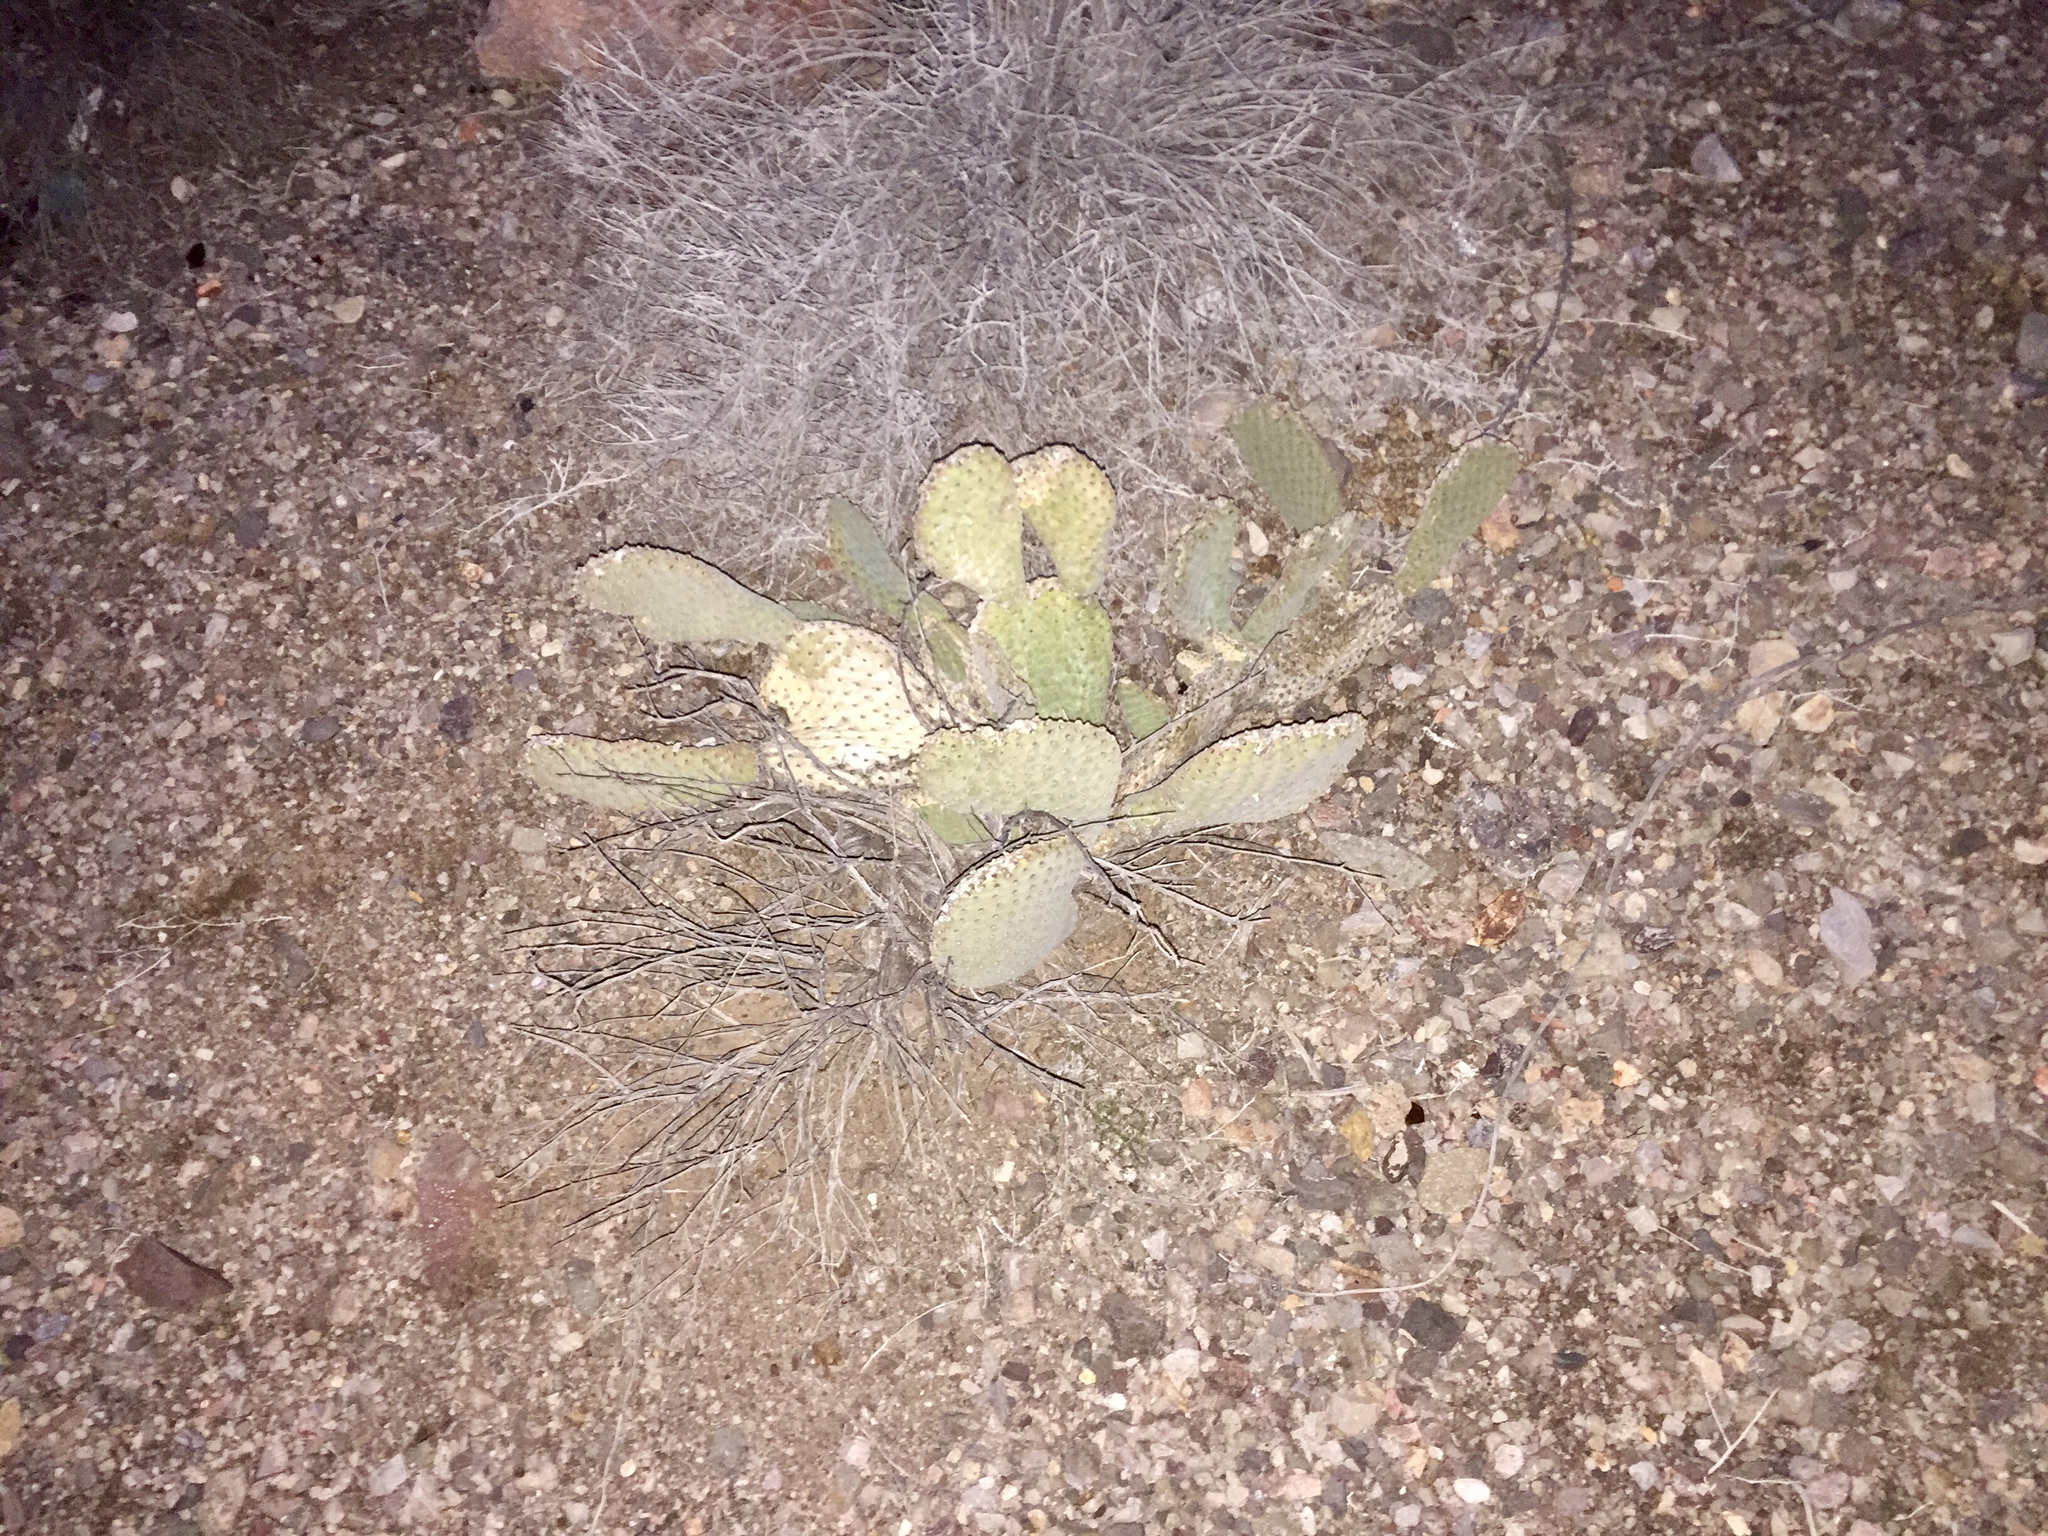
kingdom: Plantae
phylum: Tracheophyta
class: Magnoliopsida
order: Caryophyllales
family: Cactaceae
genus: Opuntia
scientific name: Opuntia basilaris
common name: Beavertail prickly-pear
